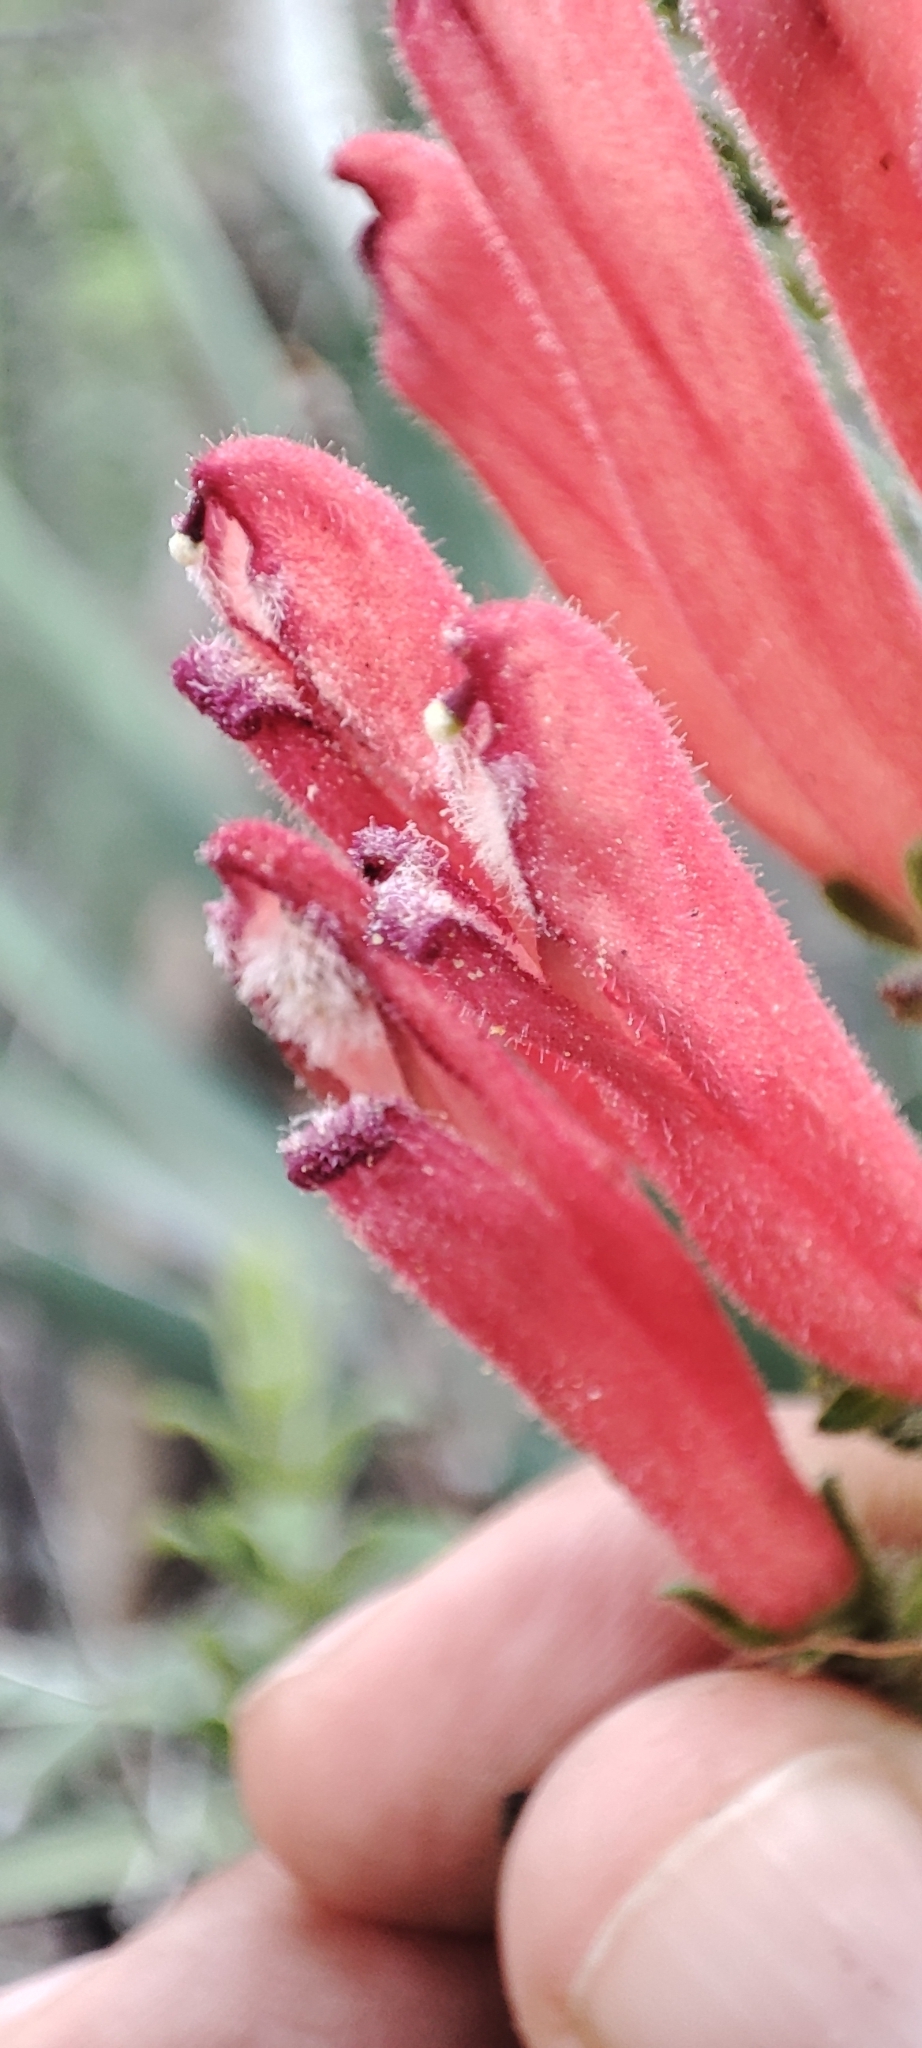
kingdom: Plantae
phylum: Tracheophyta
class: Magnoliopsida
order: Lamiales
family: Orobanchaceae
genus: Lamourouxia
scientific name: Lamourouxia nelsonii
